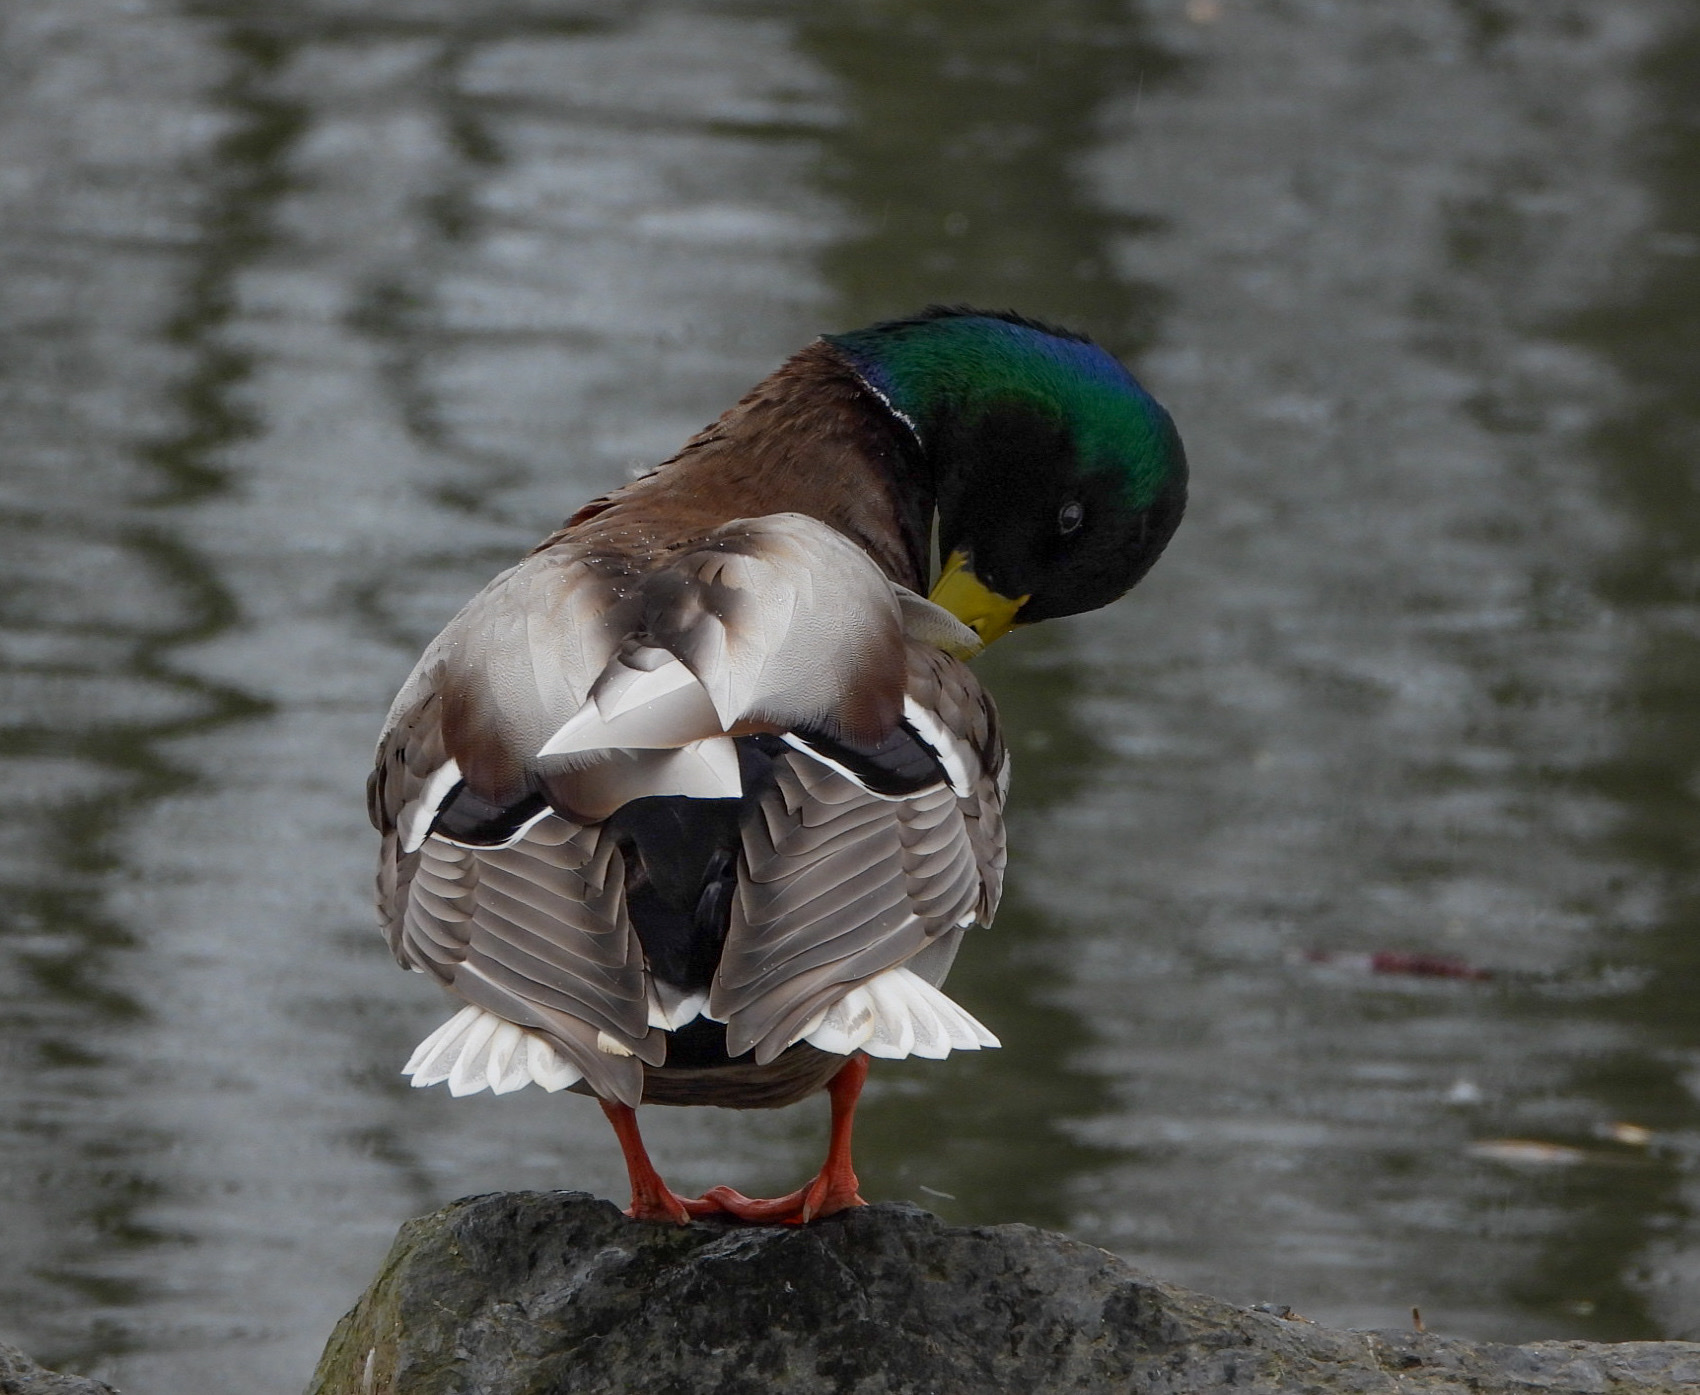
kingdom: Animalia
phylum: Chordata
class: Aves
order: Anseriformes
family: Anatidae
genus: Anas
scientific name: Anas platyrhynchos
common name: Mallard
